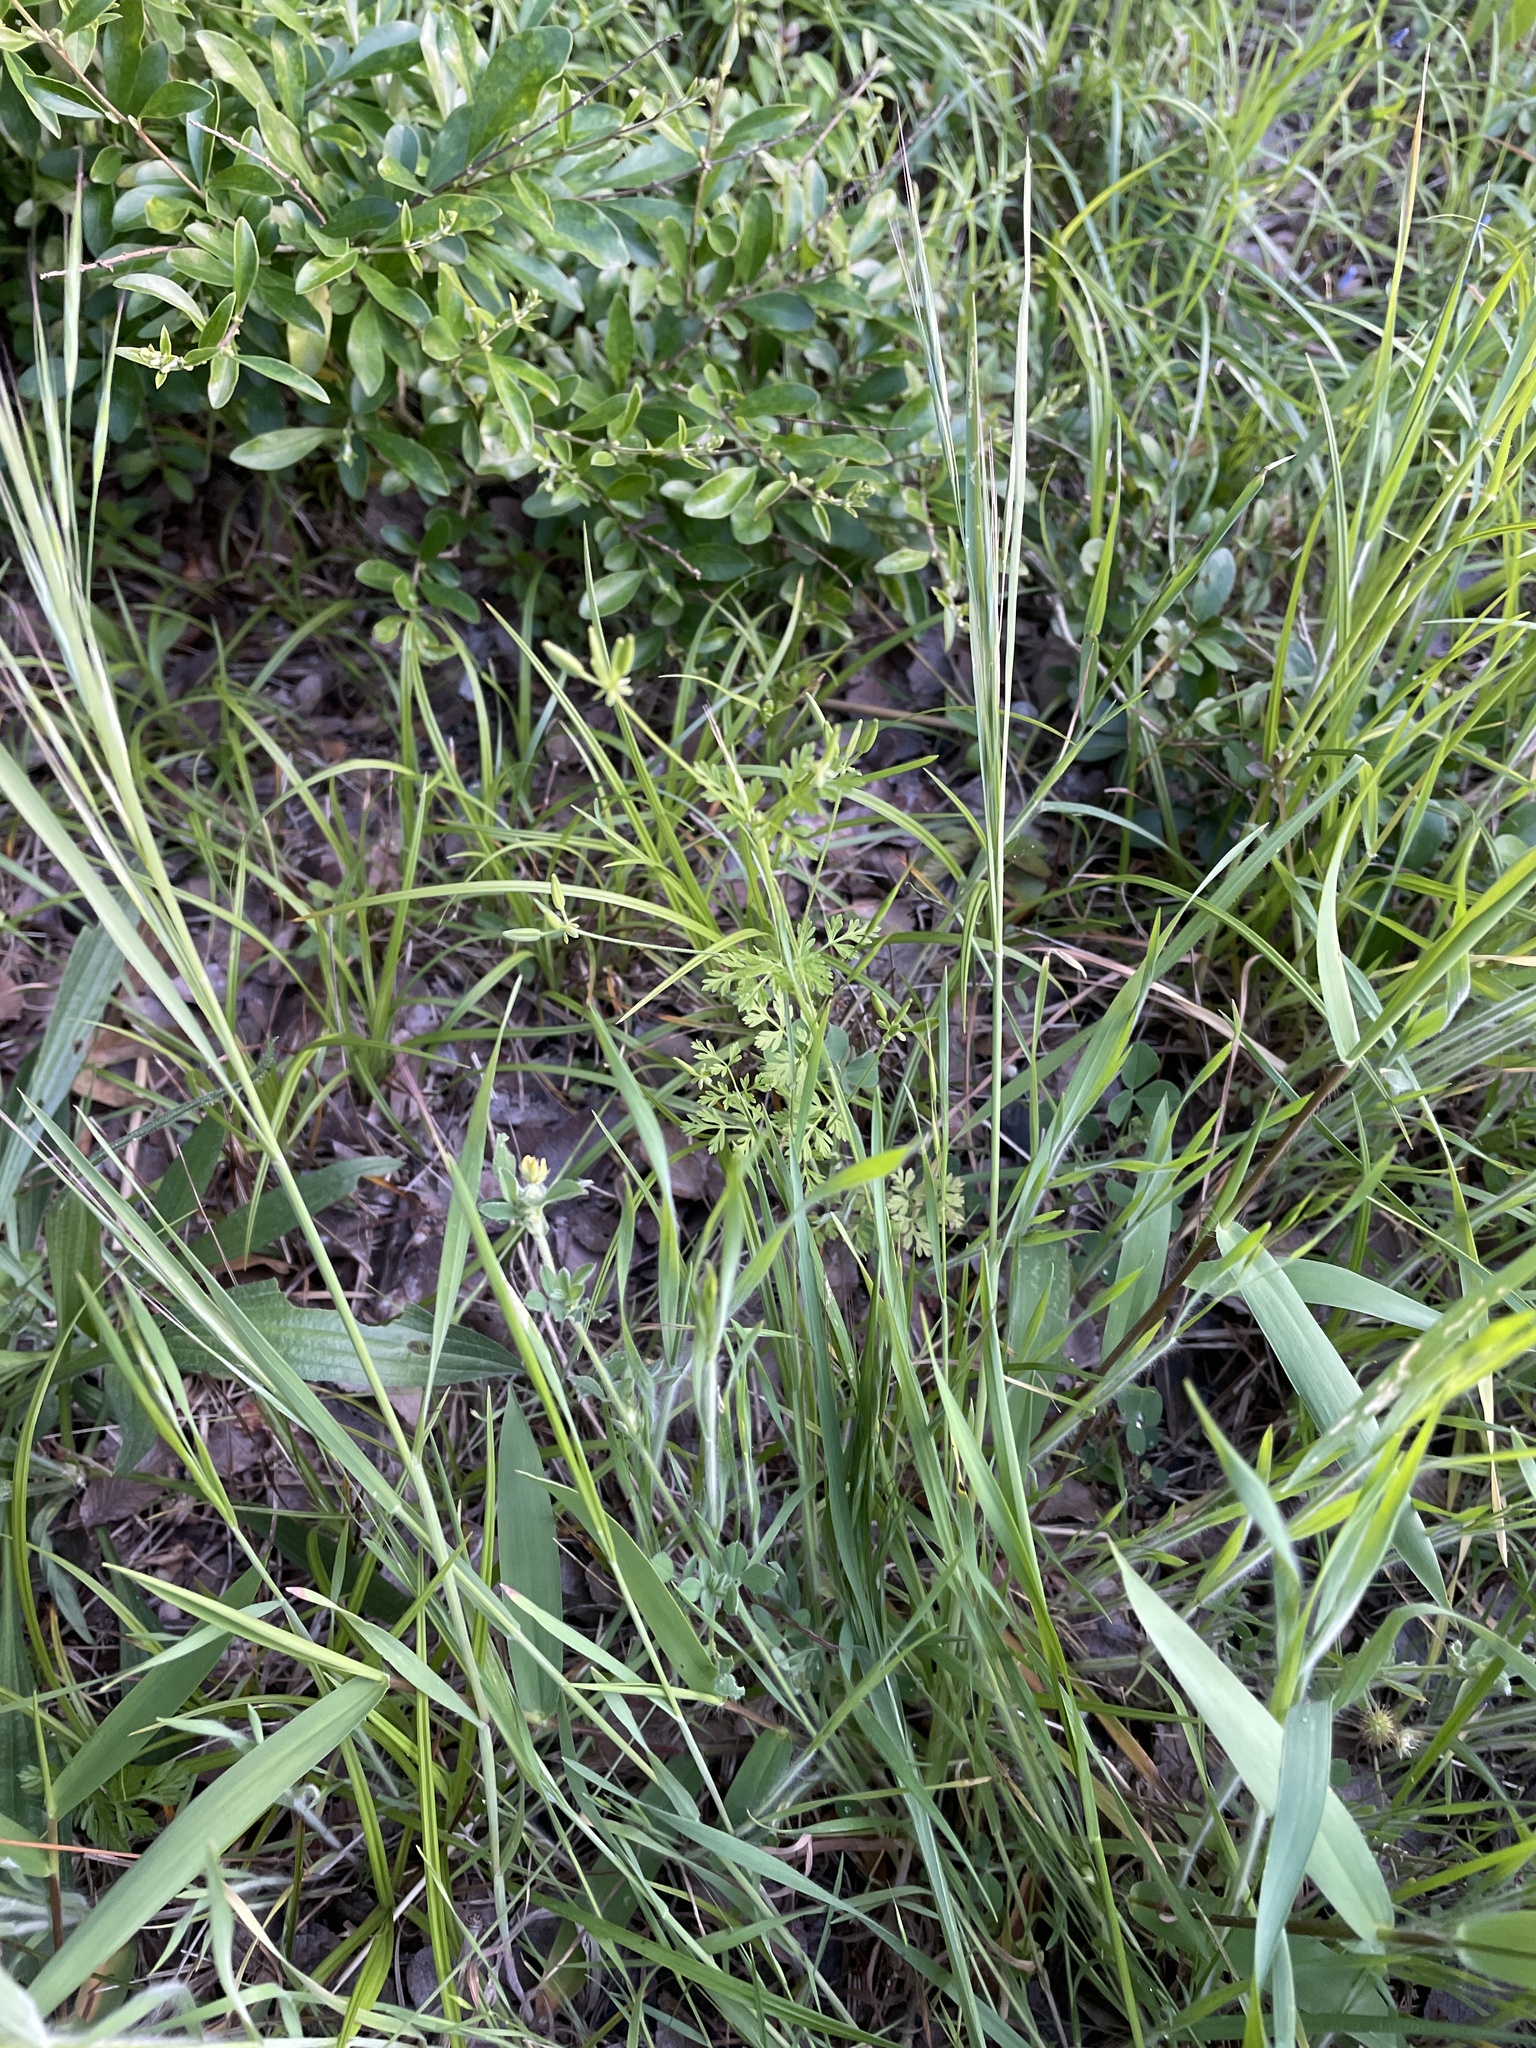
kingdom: Plantae
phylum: Tracheophyta
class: Magnoliopsida
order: Apiales
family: Apiaceae
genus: Chaerophyllum
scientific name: Chaerophyllum tainturieri
